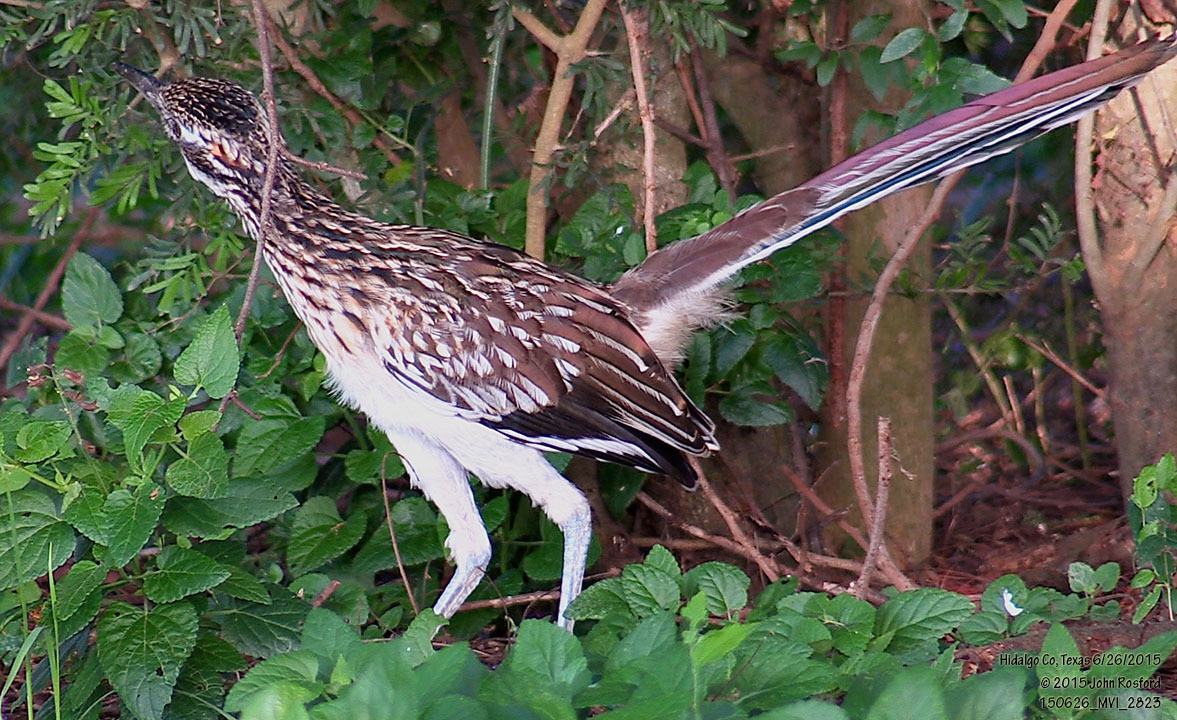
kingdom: Animalia
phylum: Chordata
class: Aves
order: Cuculiformes
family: Cuculidae
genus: Geococcyx
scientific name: Geococcyx californianus
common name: Greater roadrunner
